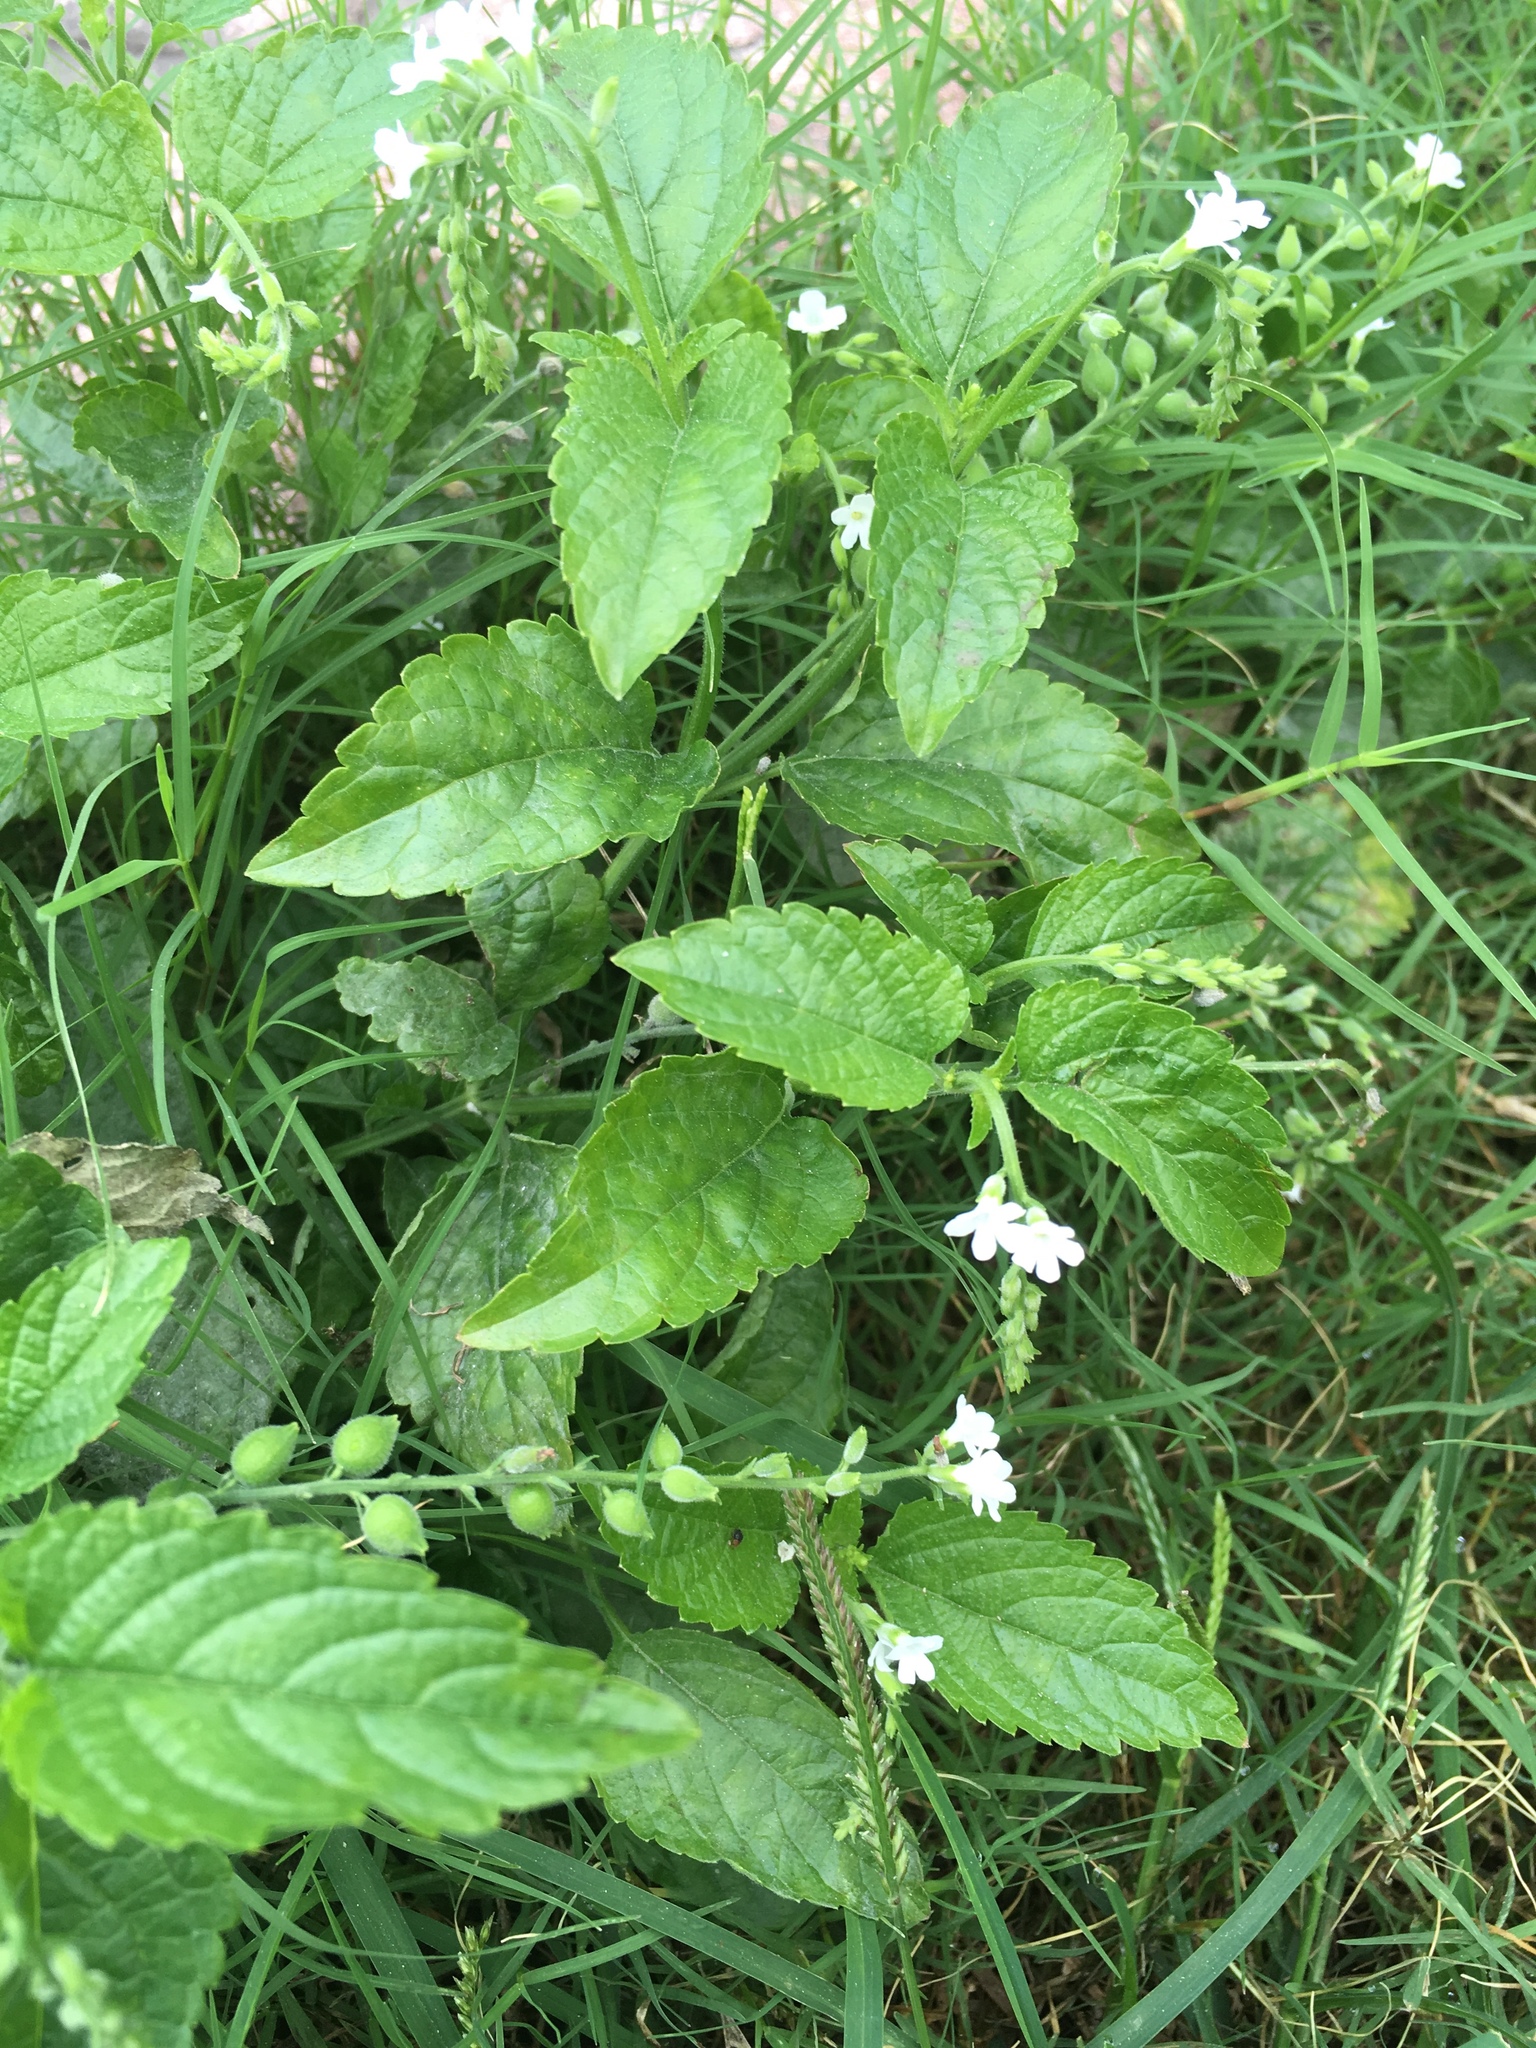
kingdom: Plantae
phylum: Tracheophyta
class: Magnoliopsida
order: Lamiales
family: Verbenaceae
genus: Priva
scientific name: Priva lappulacea
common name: Fasten-'pon-coat
